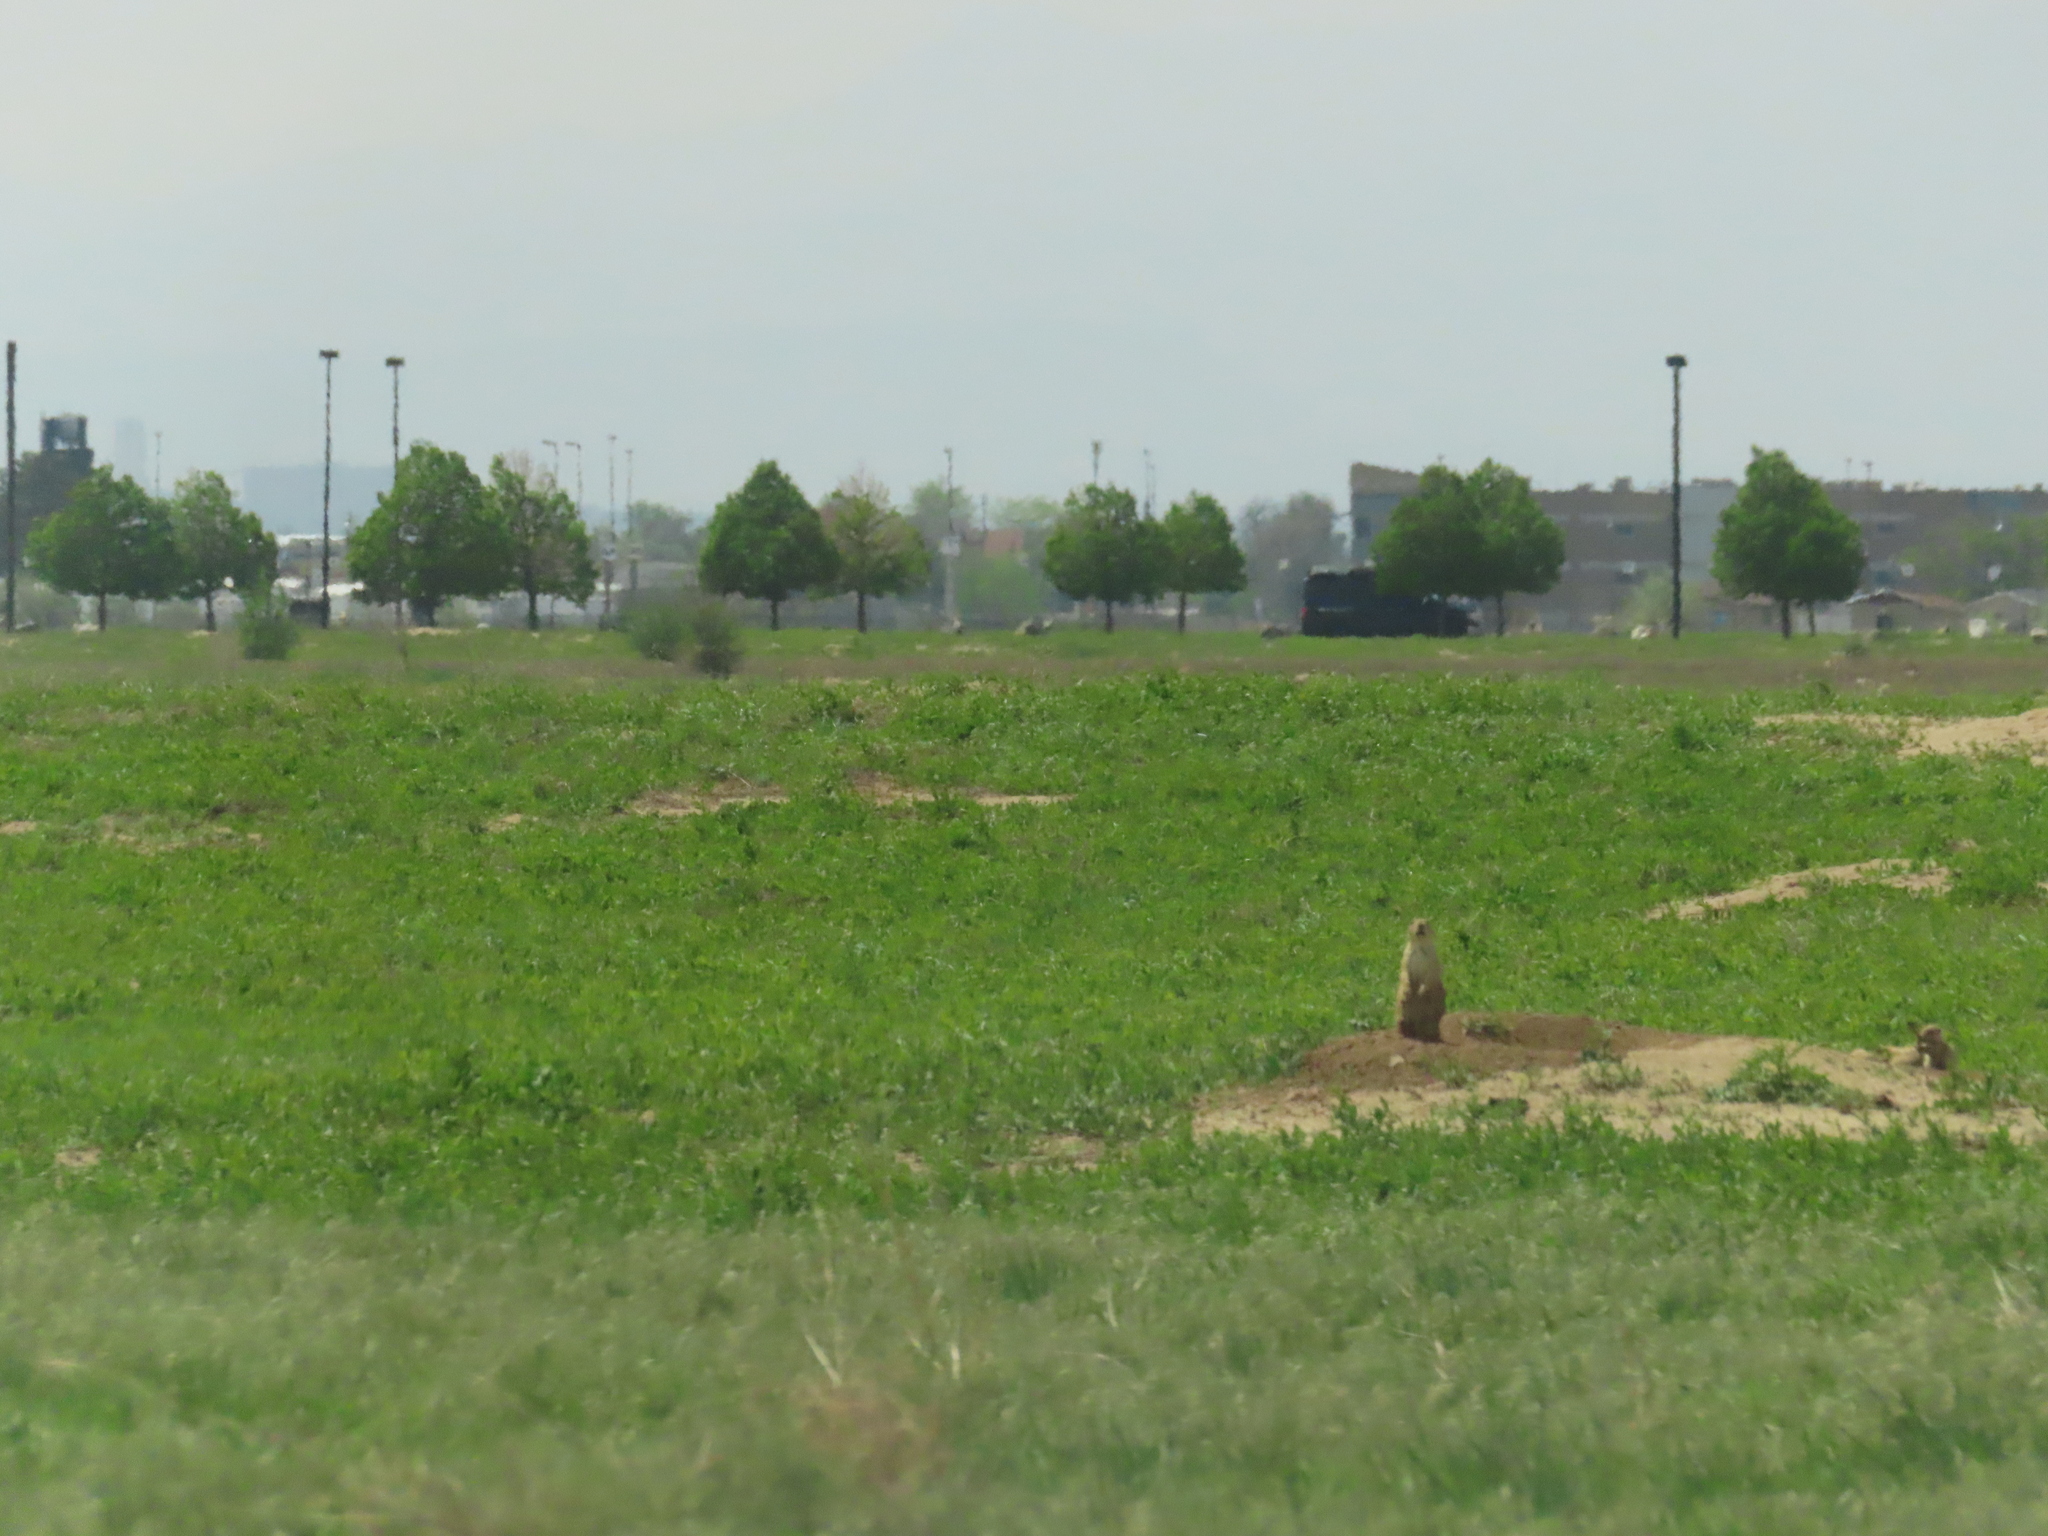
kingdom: Animalia
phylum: Chordata
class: Mammalia
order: Rodentia
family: Sciuridae
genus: Cynomys
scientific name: Cynomys ludovicianus
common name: Black-tailed prairie dog
